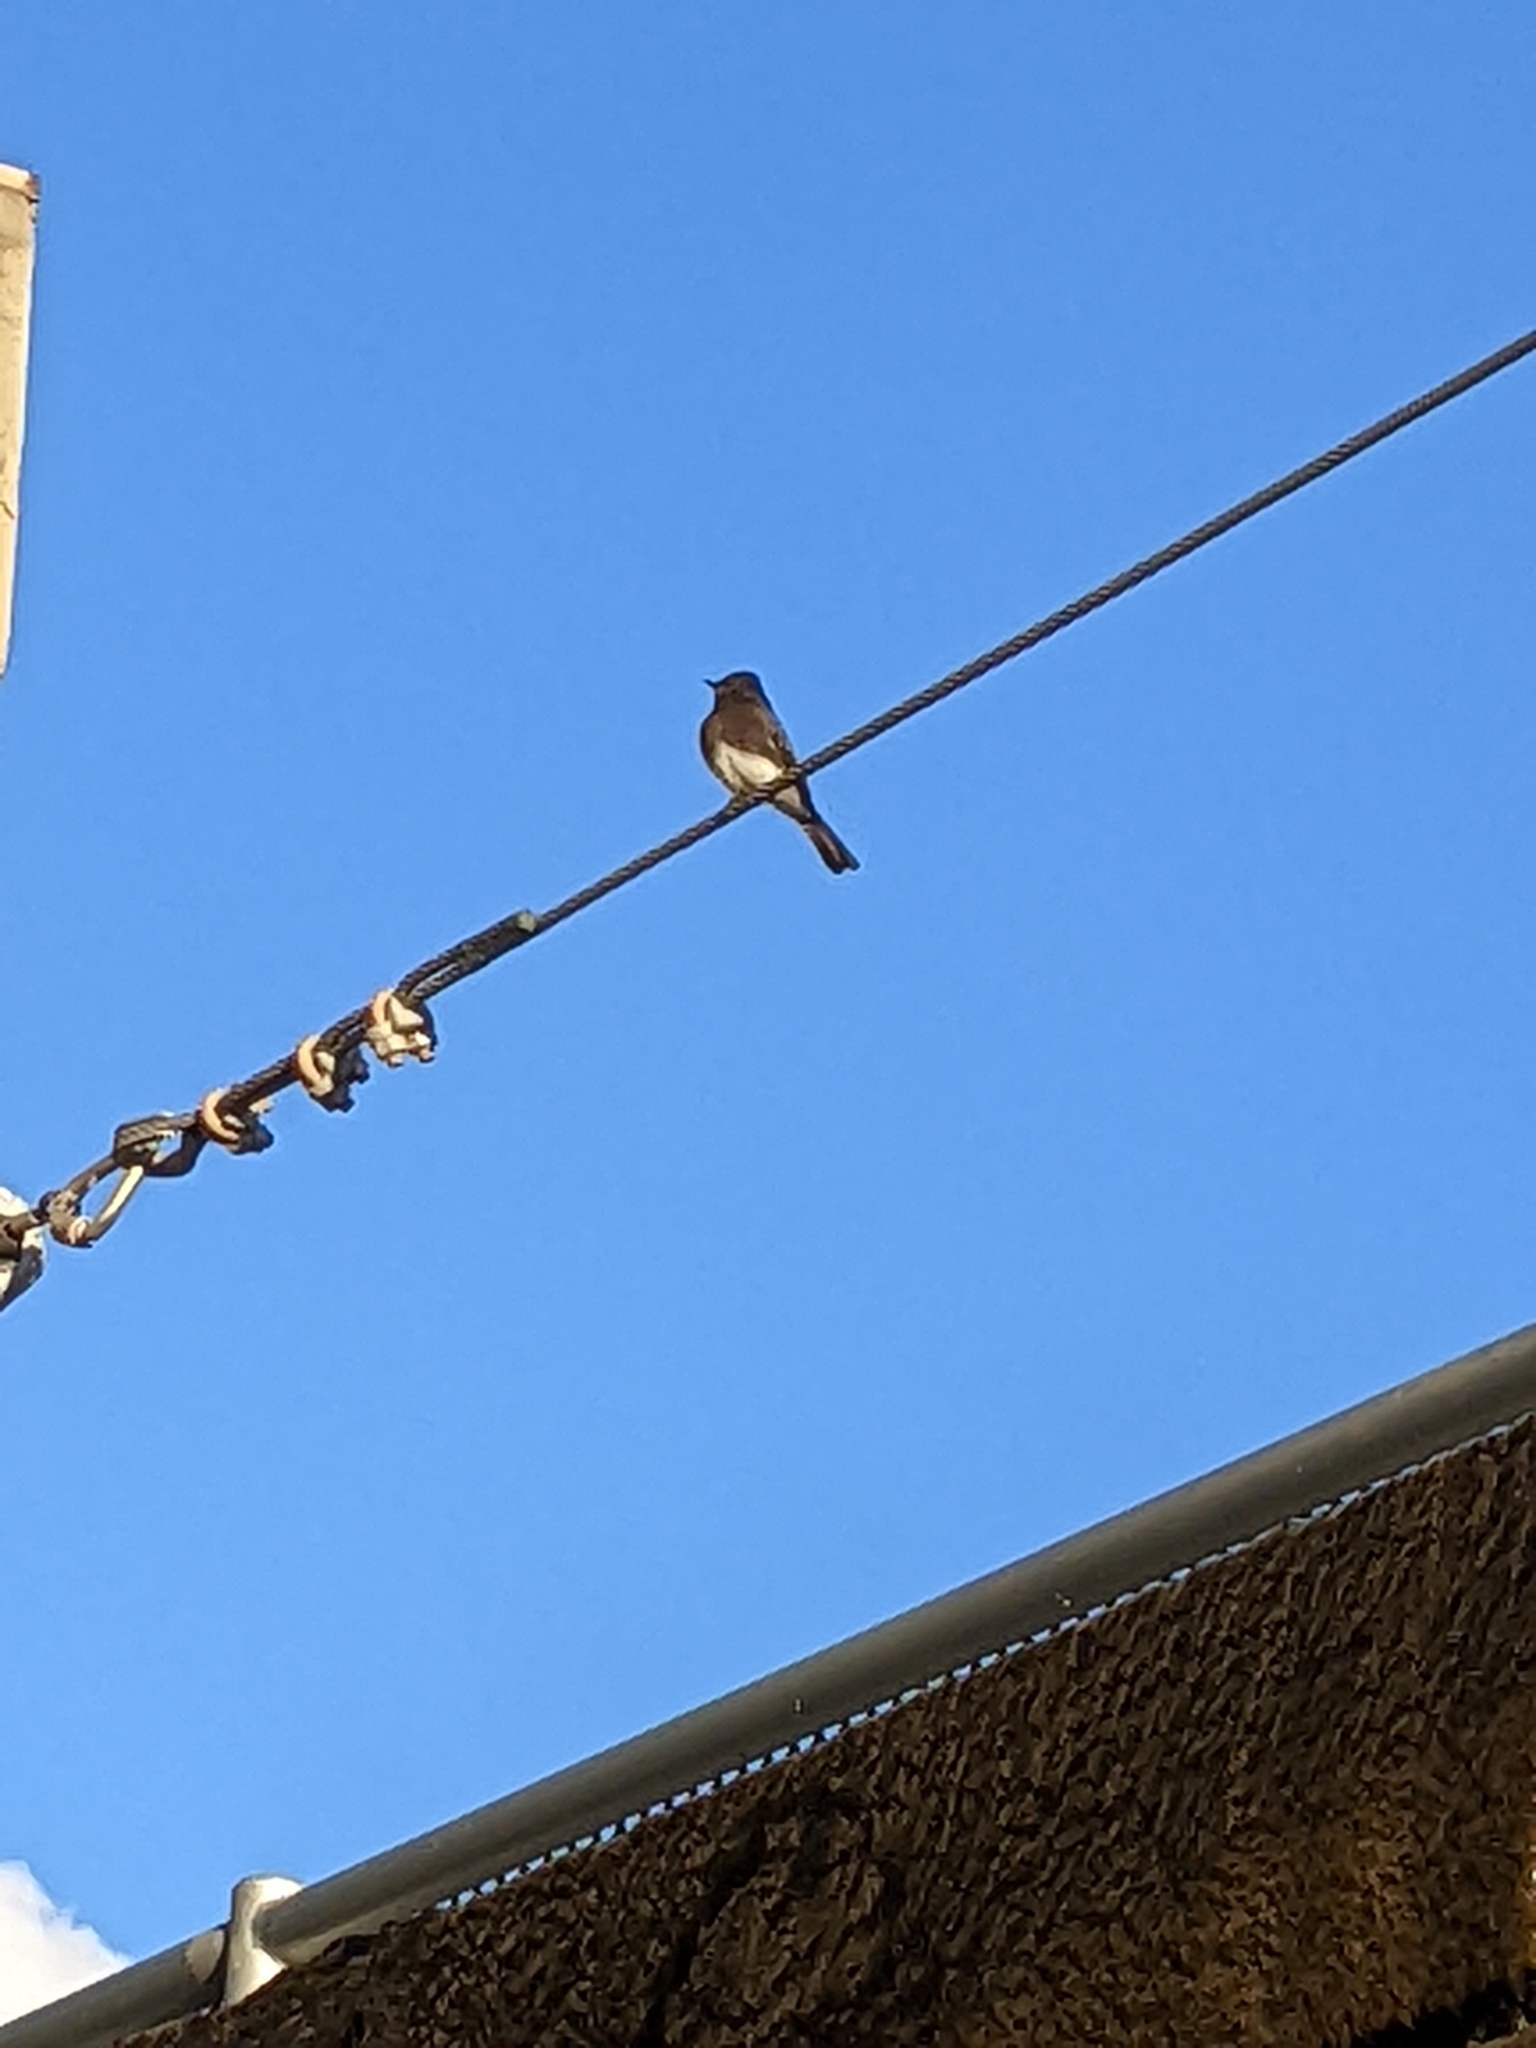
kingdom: Animalia
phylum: Chordata
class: Aves
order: Passeriformes
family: Tyrannidae
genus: Sayornis
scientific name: Sayornis nigricans
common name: Black phoebe
